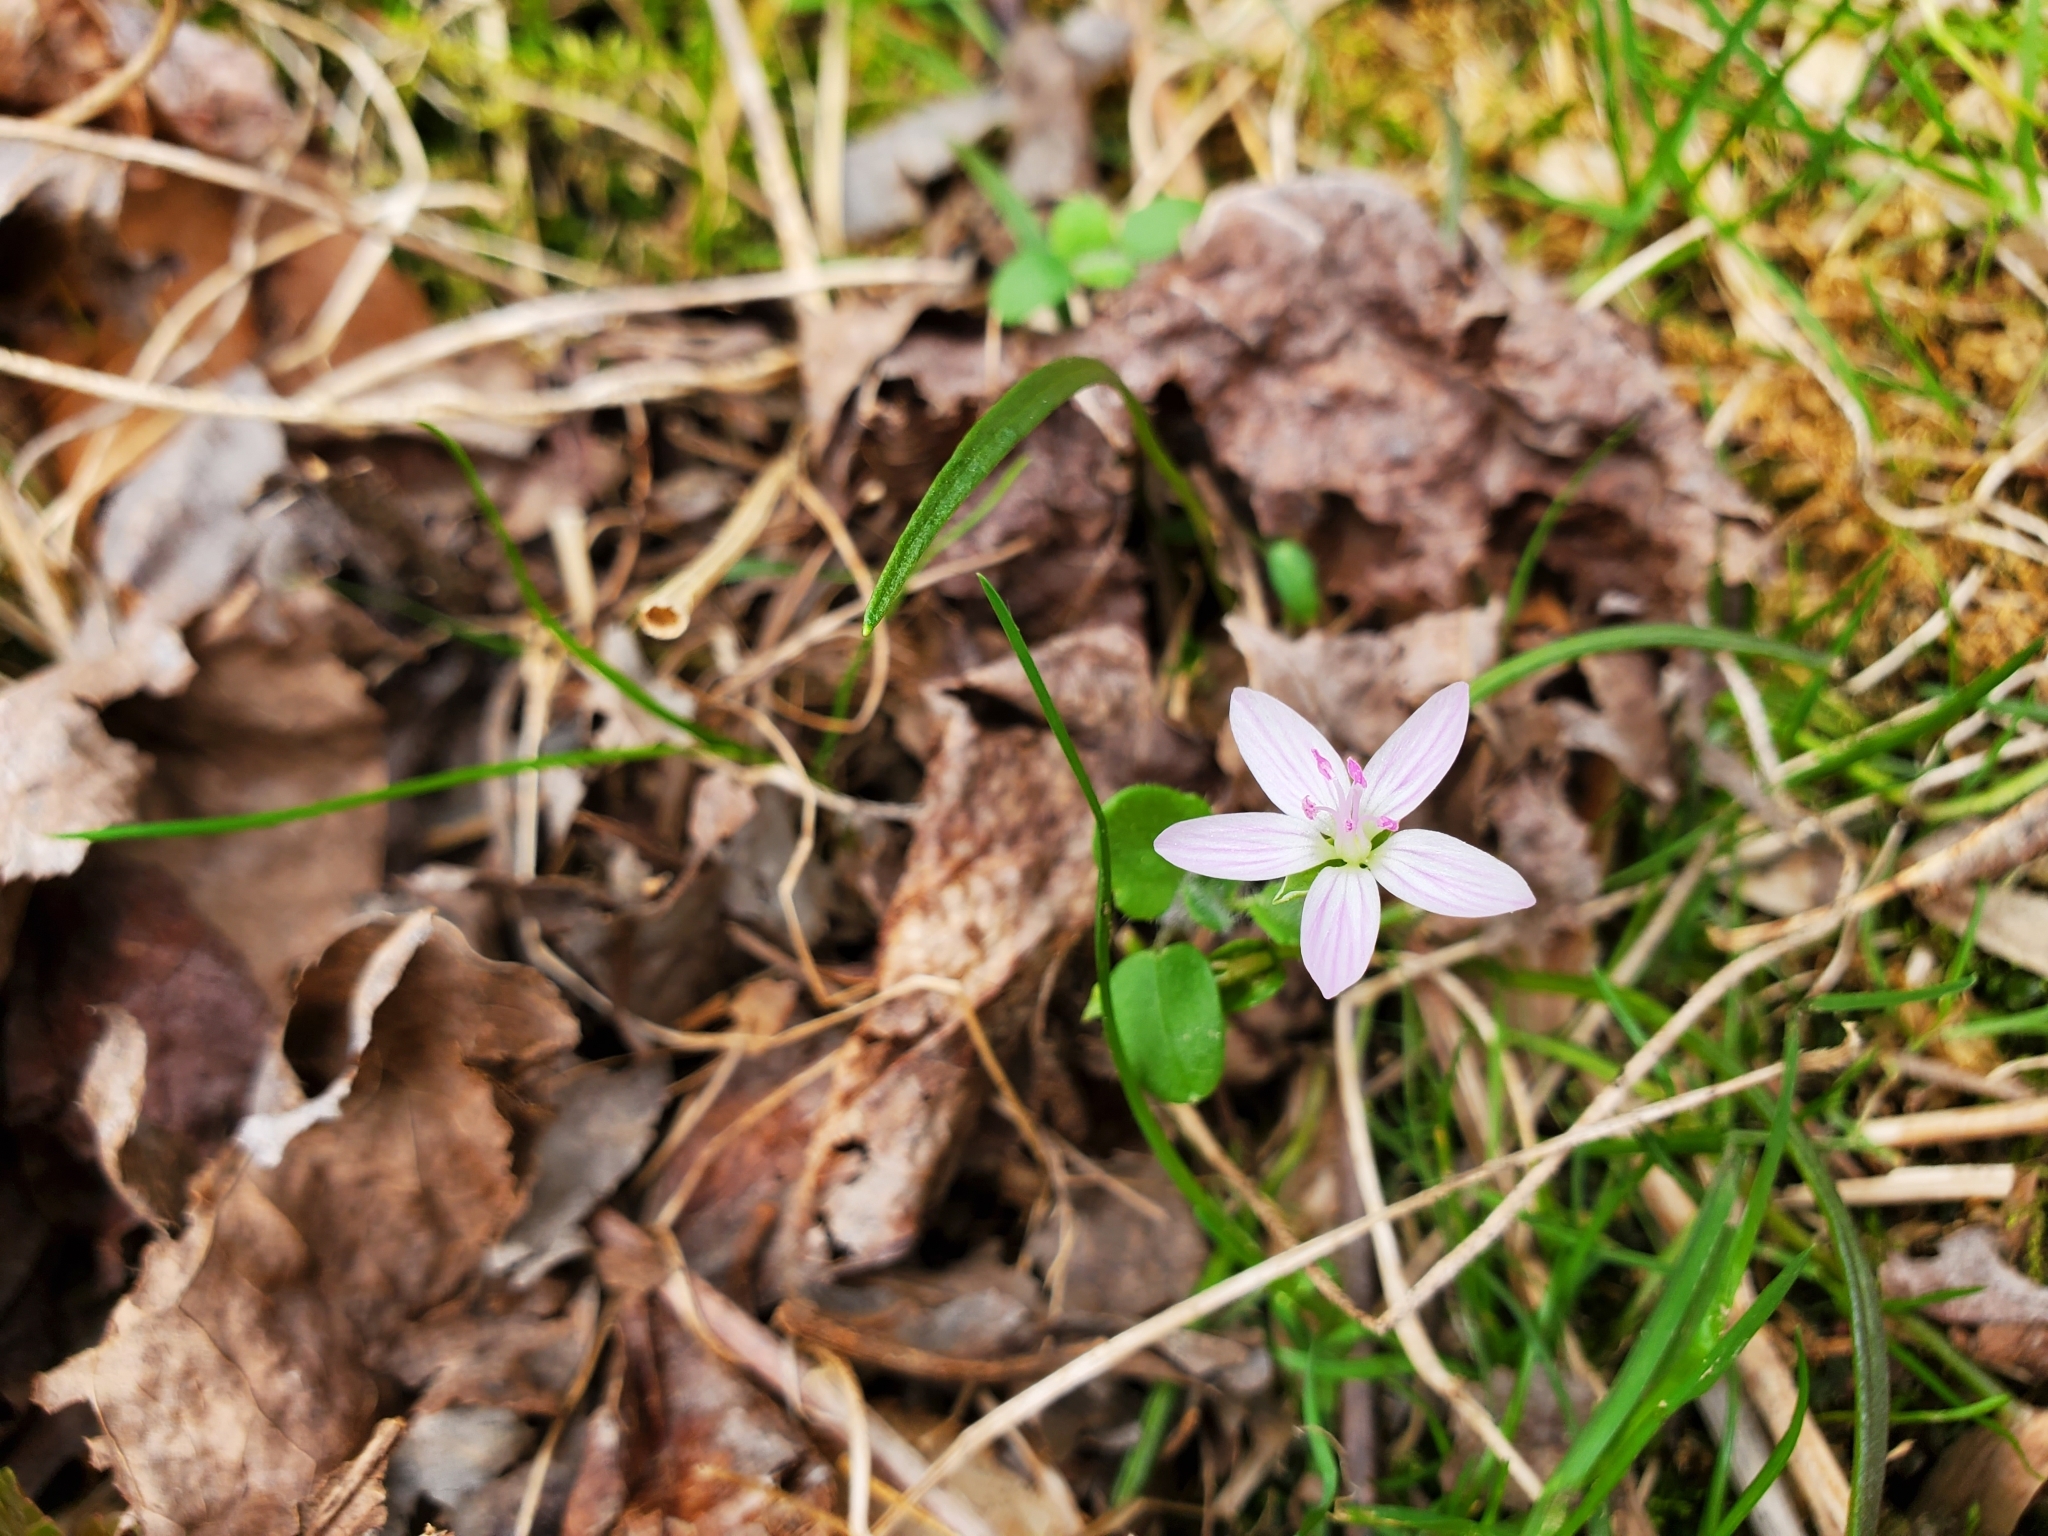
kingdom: Plantae
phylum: Tracheophyta
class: Magnoliopsida
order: Caryophyllales
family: Montiaceae
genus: Claytonia
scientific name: Claytonia virginica
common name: Virginia springbeauty
